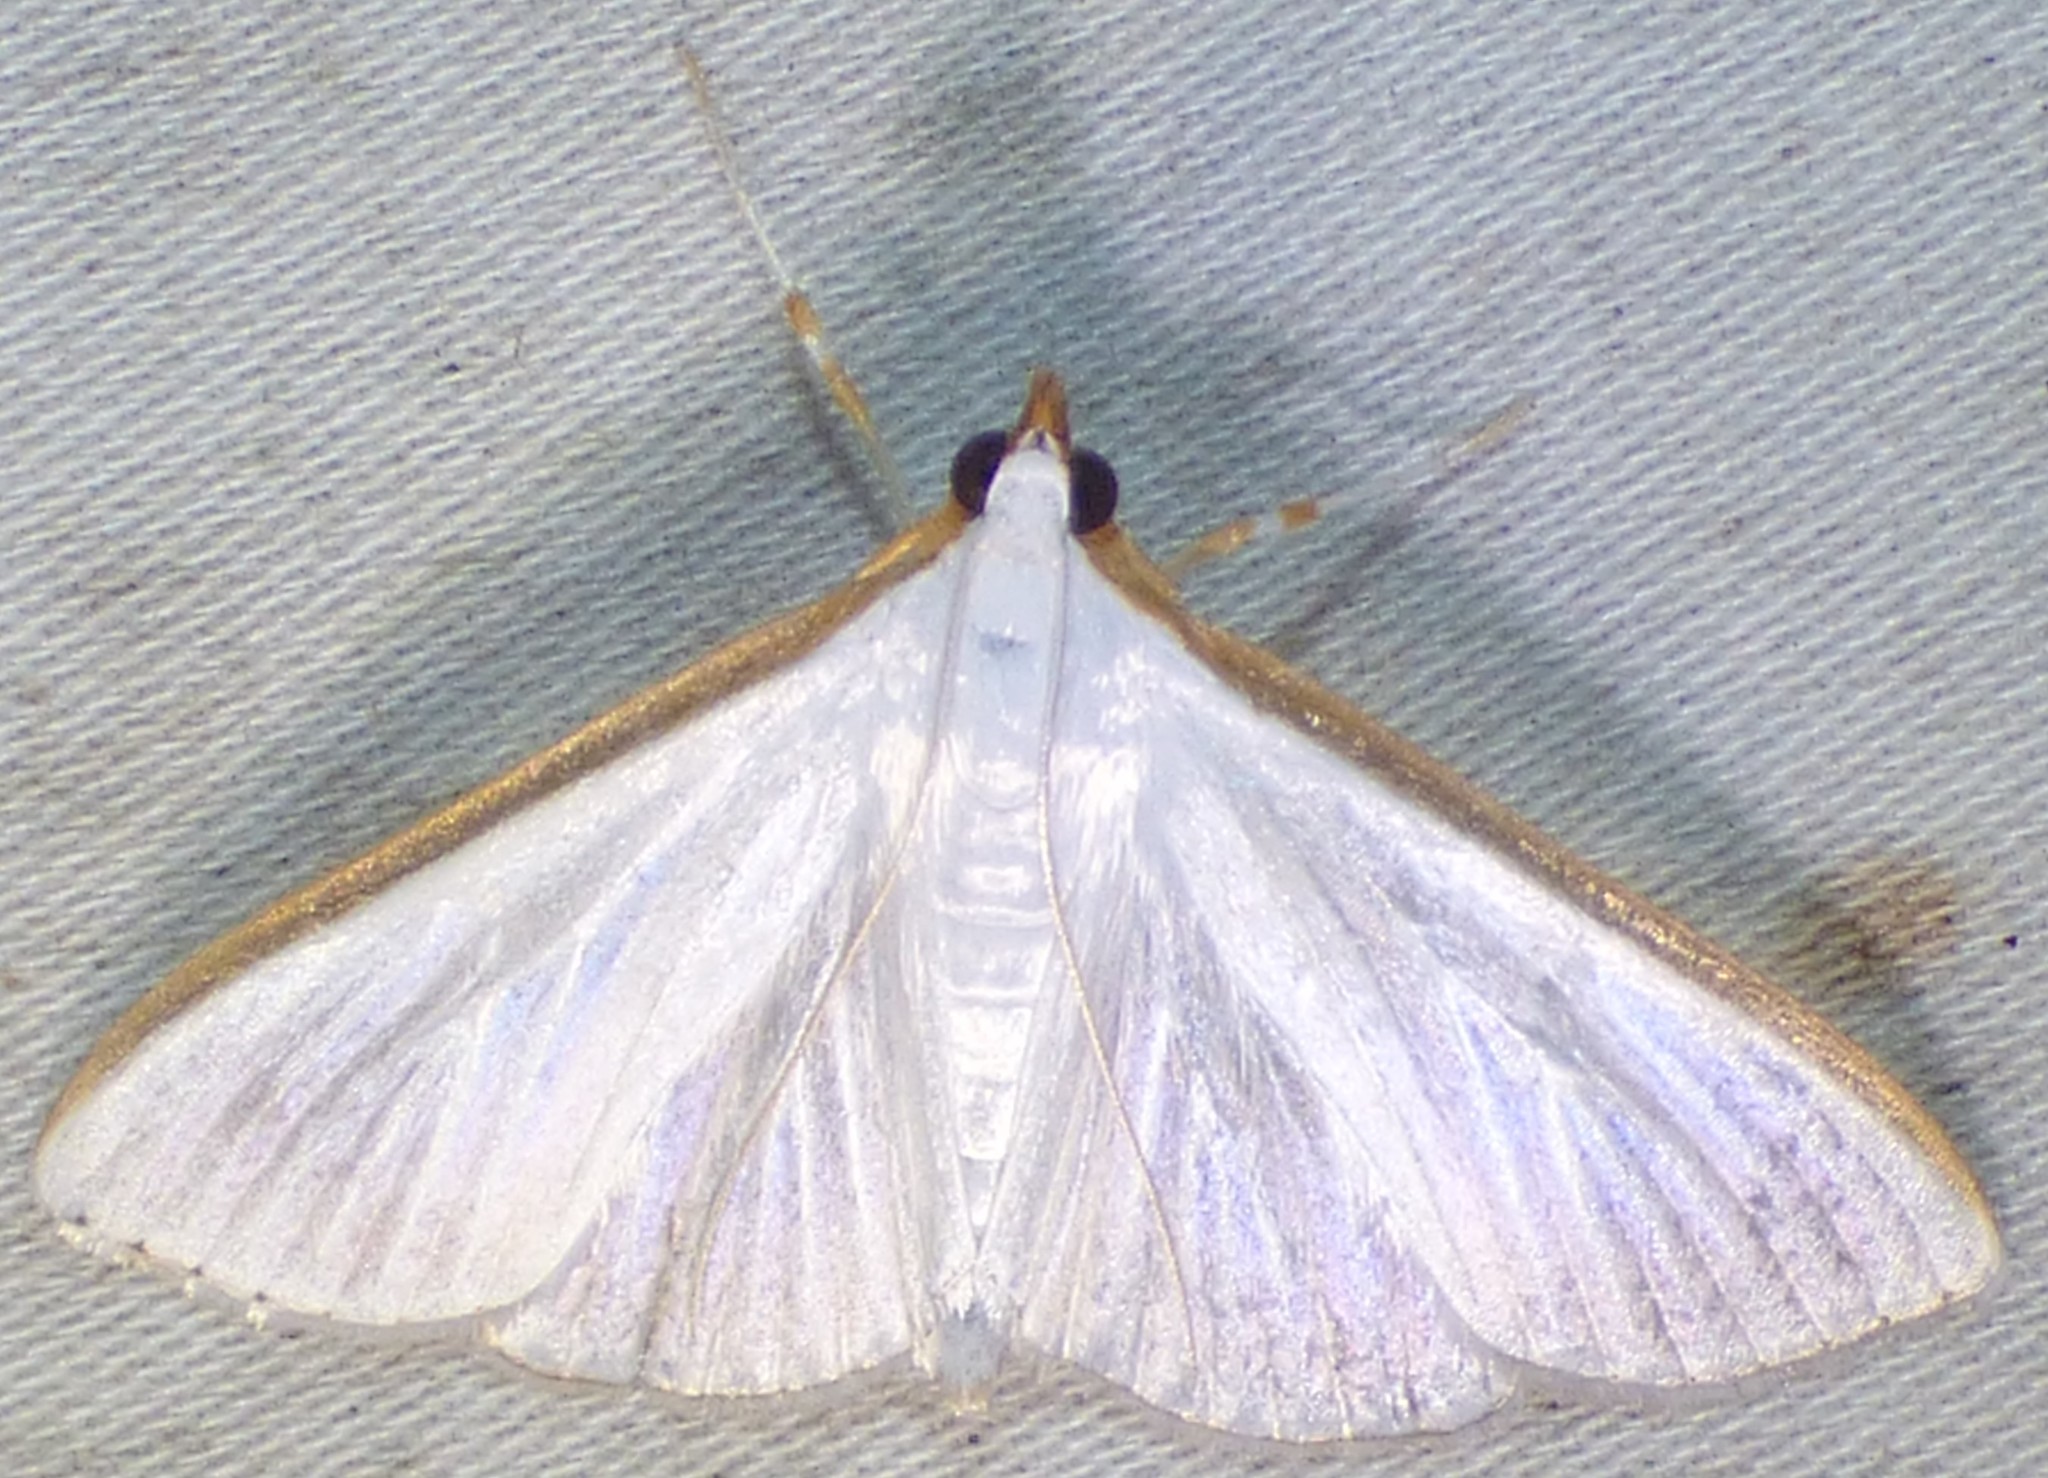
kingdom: Animalia
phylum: Arthropoda
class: Insecta
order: Lepidoptera
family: Crambidae
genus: Diaphania
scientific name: Diaphania costata
